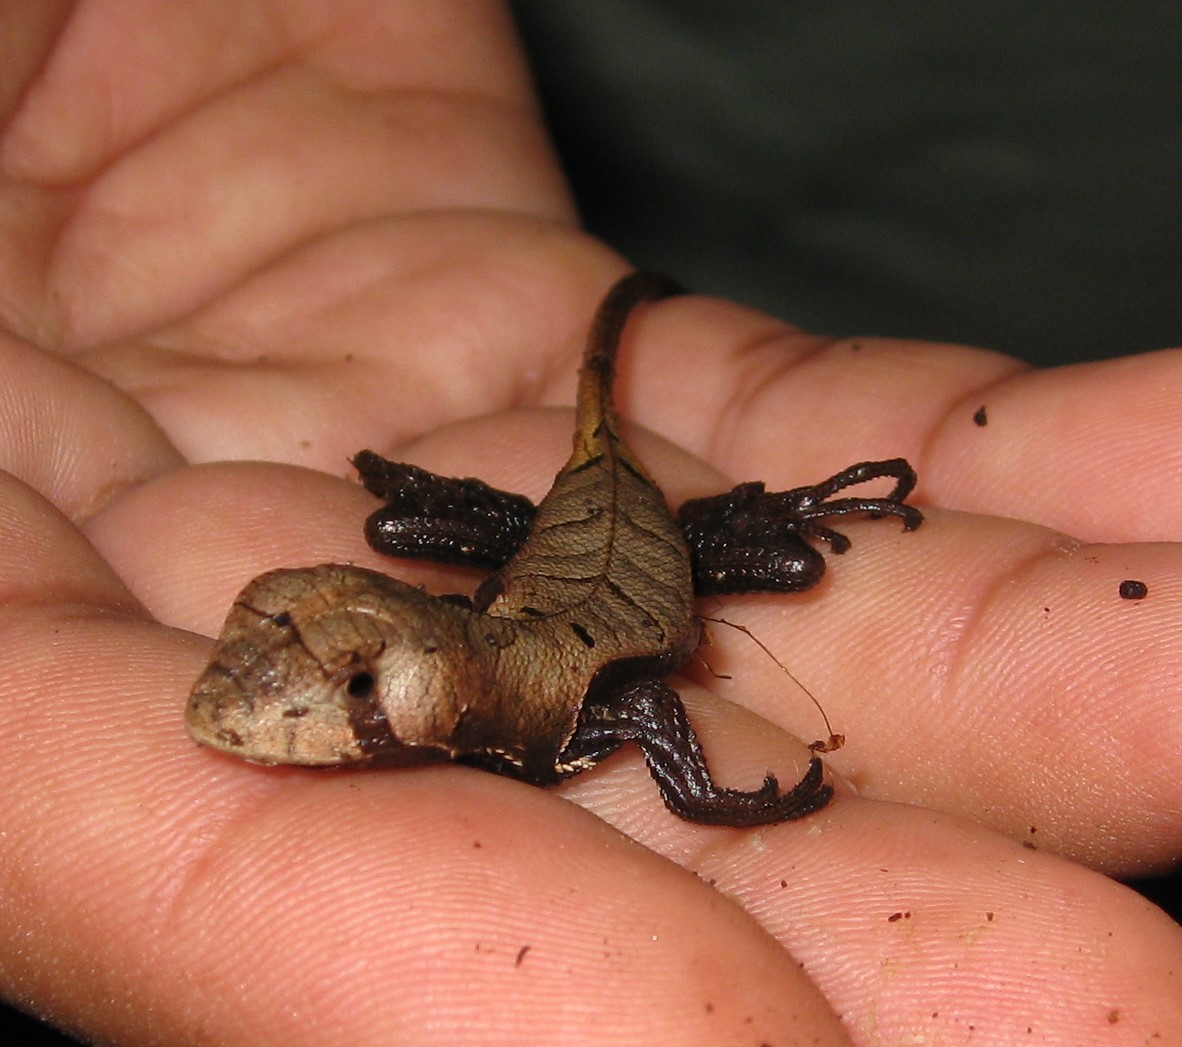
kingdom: Animalia
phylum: Chordata
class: Squamata
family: Tropiduridae
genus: Stenocercus
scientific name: Stenocercus fimbriatus
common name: Western leaf lizard
